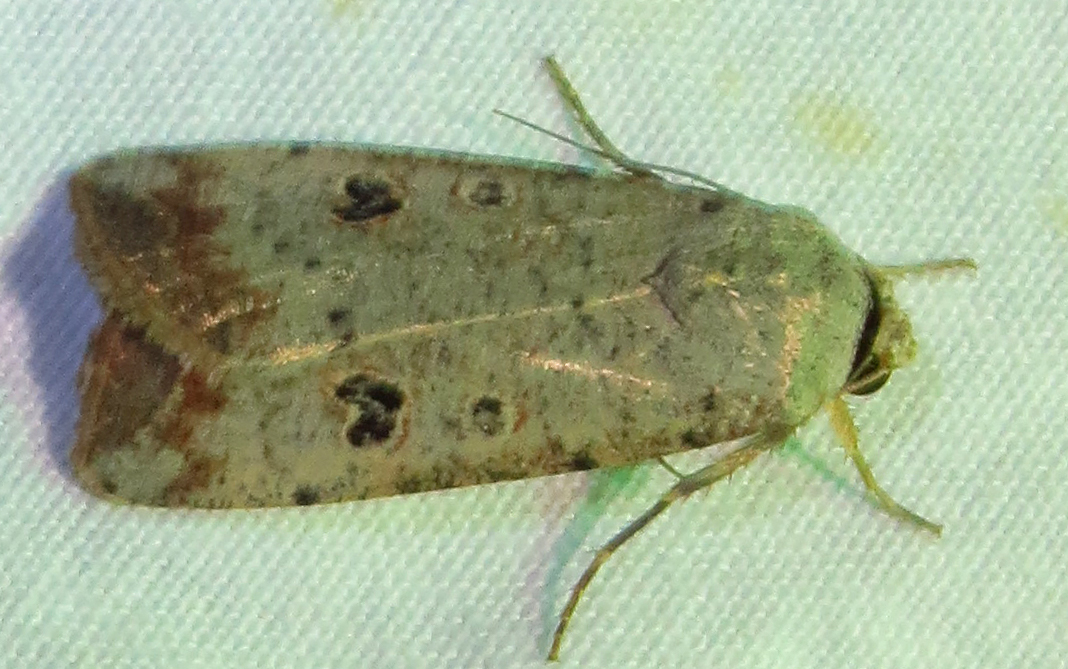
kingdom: Animalia
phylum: Arthropoda
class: Insecta
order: Lepidoptera
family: Noctuidae
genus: Anicla
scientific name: Anicla infecta
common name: Green cutworm
